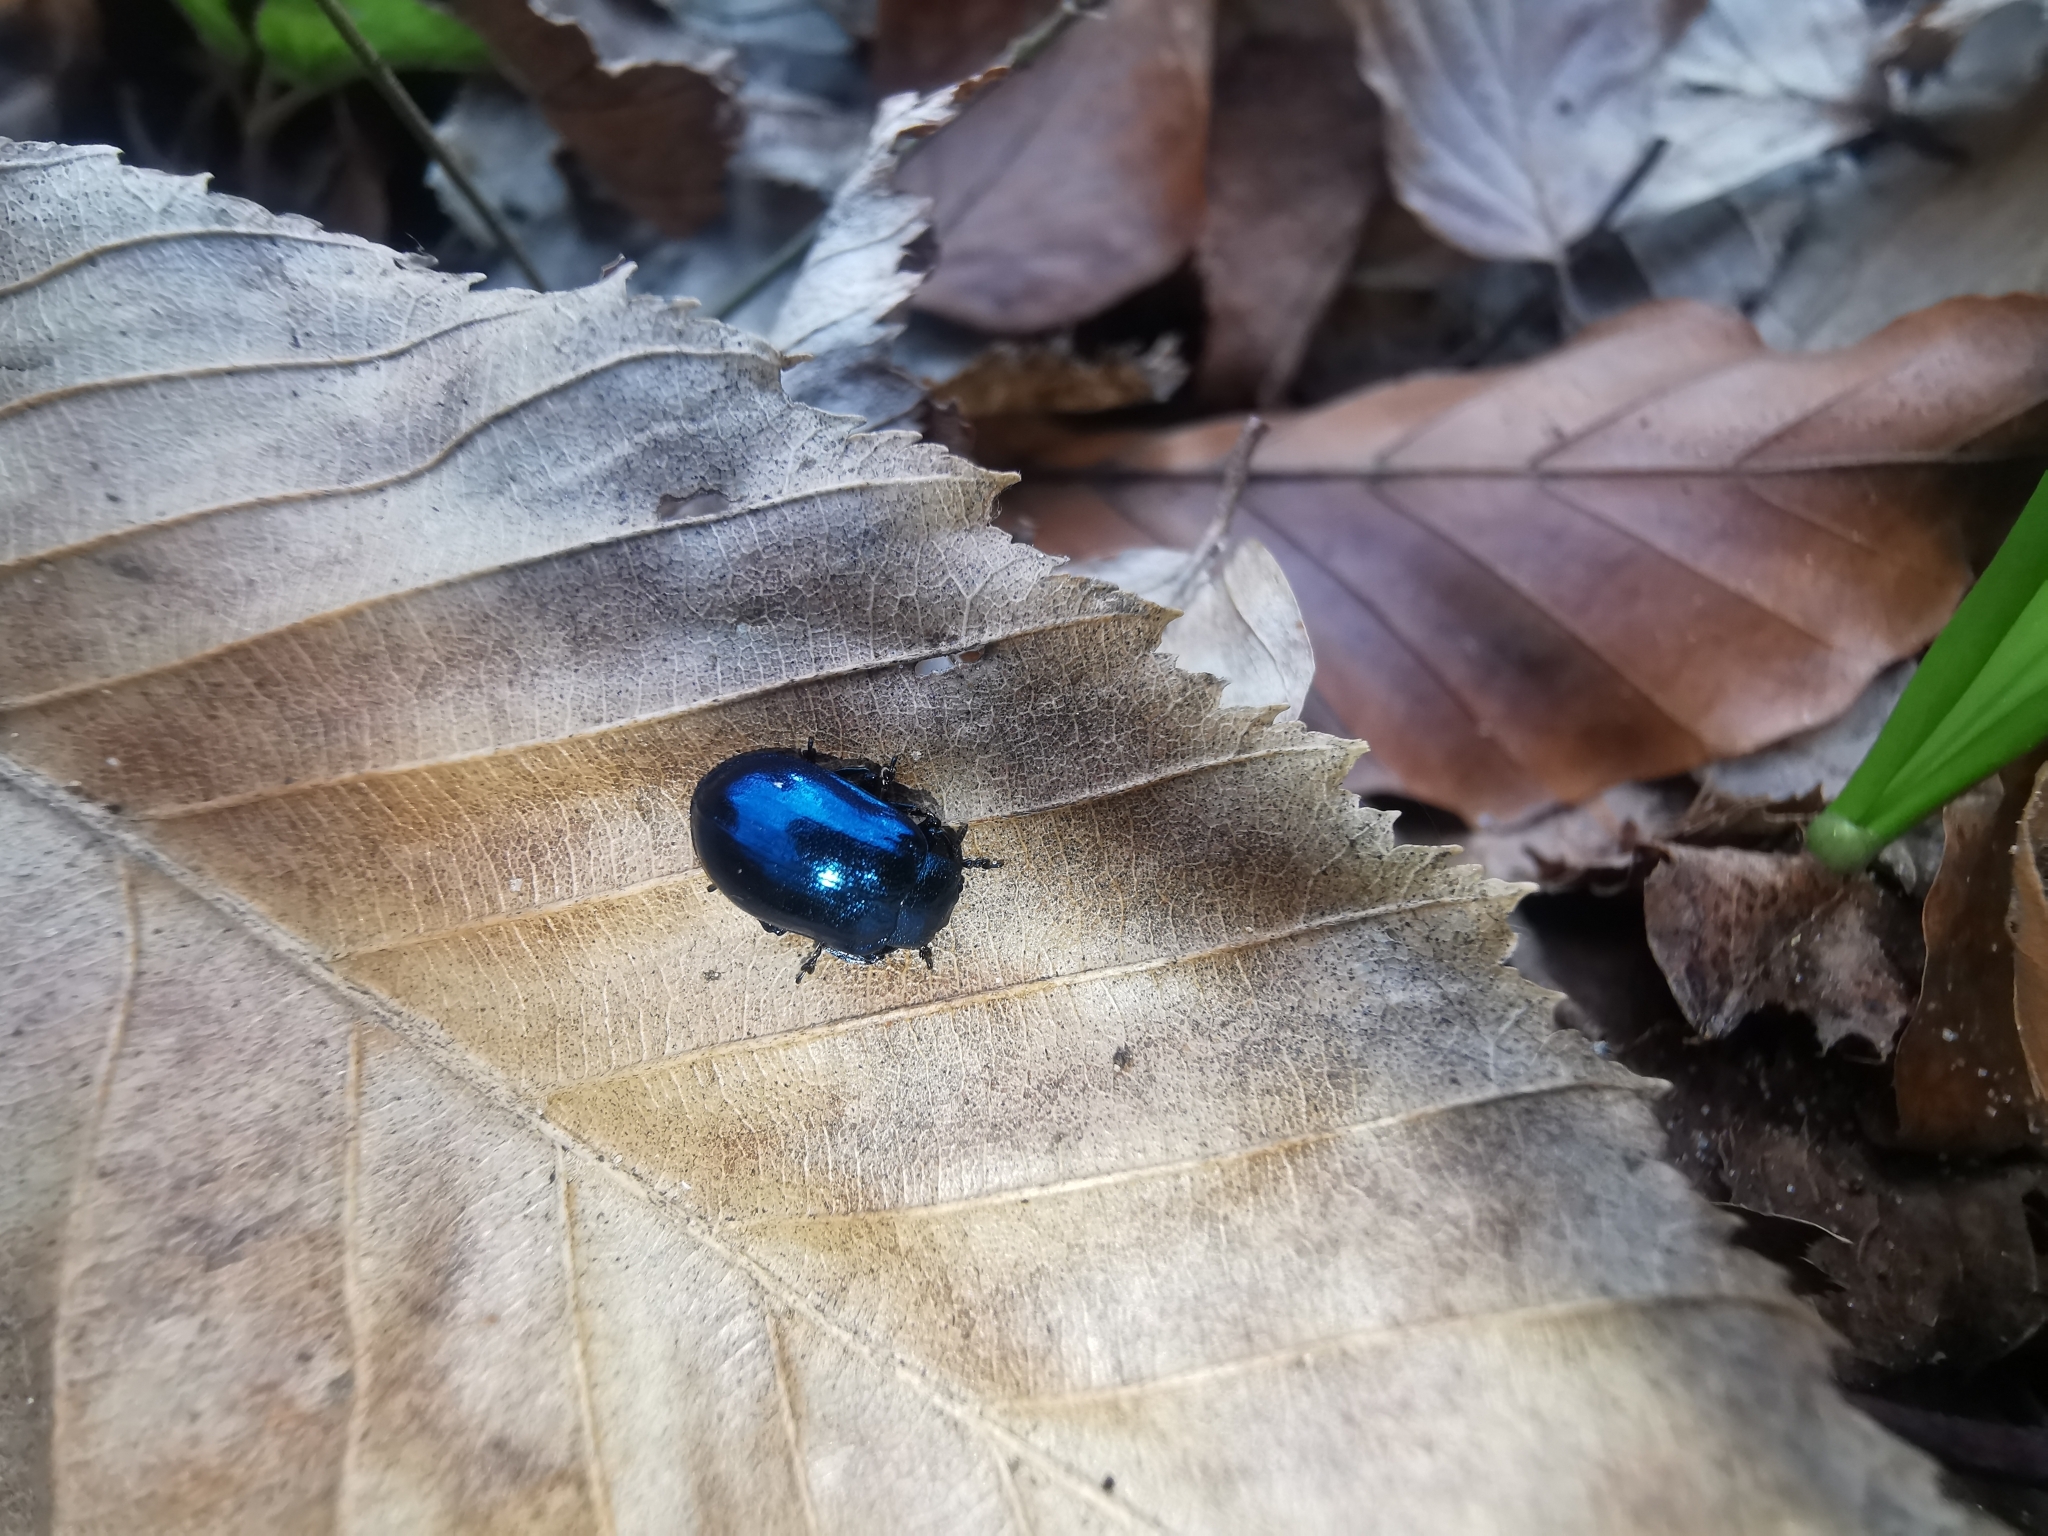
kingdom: Animalia
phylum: Arthropoda
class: Insecta
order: Coleoptera
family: Chrysomelidae
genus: Plagiosterna
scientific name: Plagiosterna aenea
